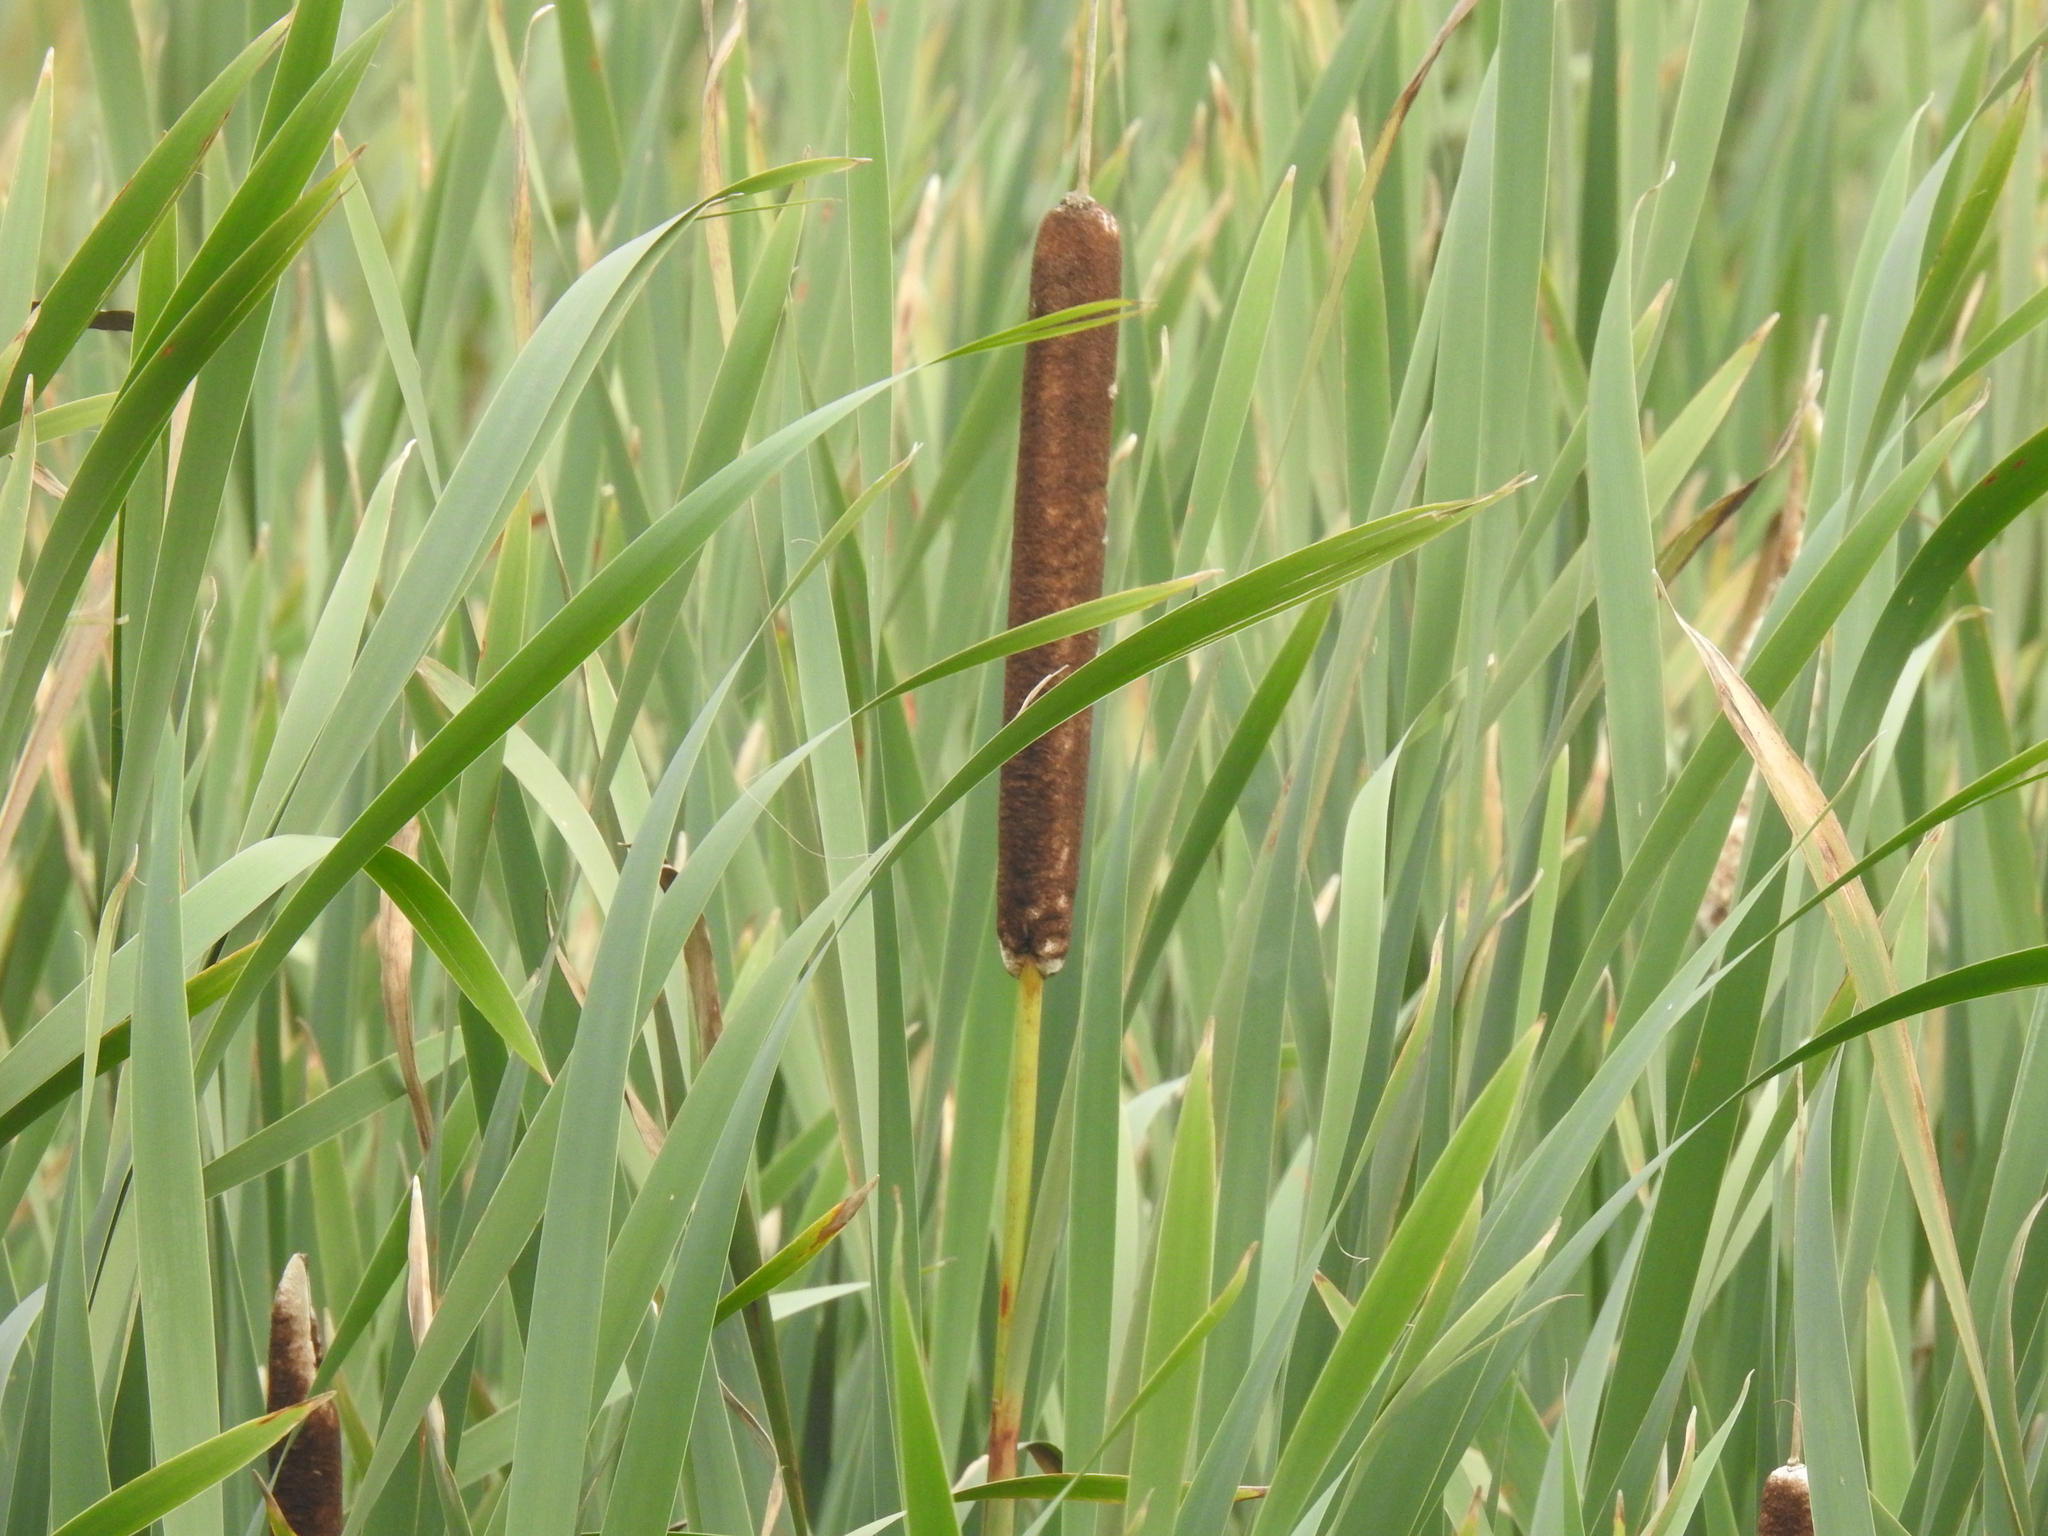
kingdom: Plantae
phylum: Tracheophyta
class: Liliopsida
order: Poales
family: Typhaceae
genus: Typha
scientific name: Typha latifolia
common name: Broadleaf cattail
